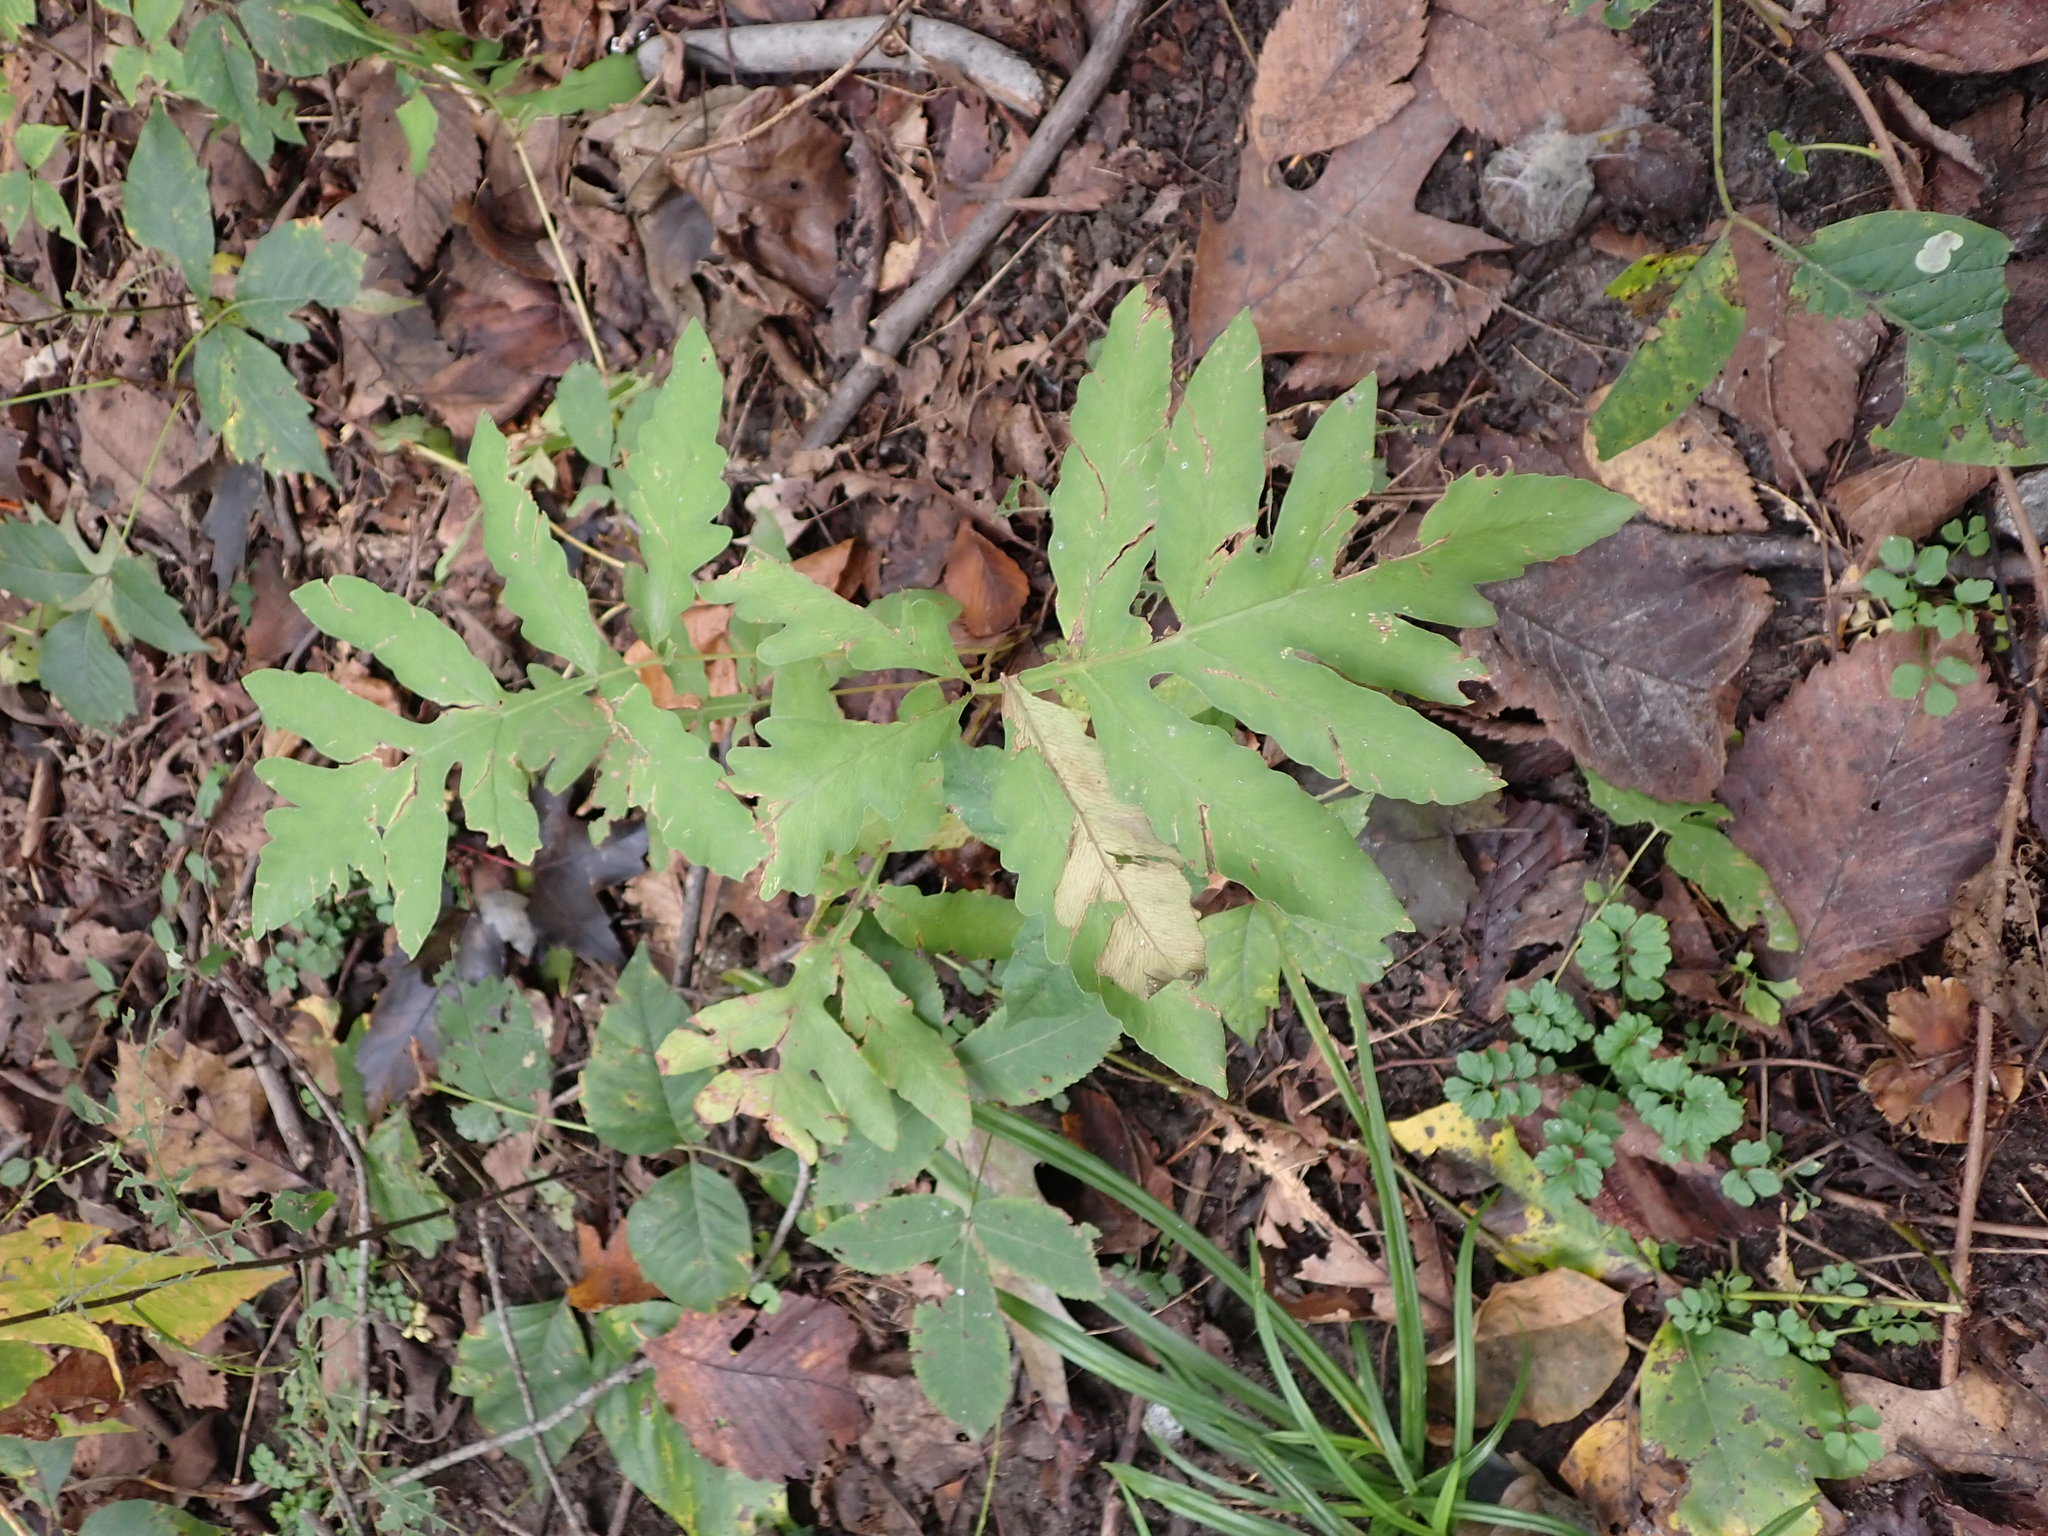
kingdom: Plantae
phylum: Tracheophyta
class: Polypodiopsida
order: Polypodiales
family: Onocleaceae
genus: Onoclea
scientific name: Onoclea sensibilis
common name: Sensitive fern
